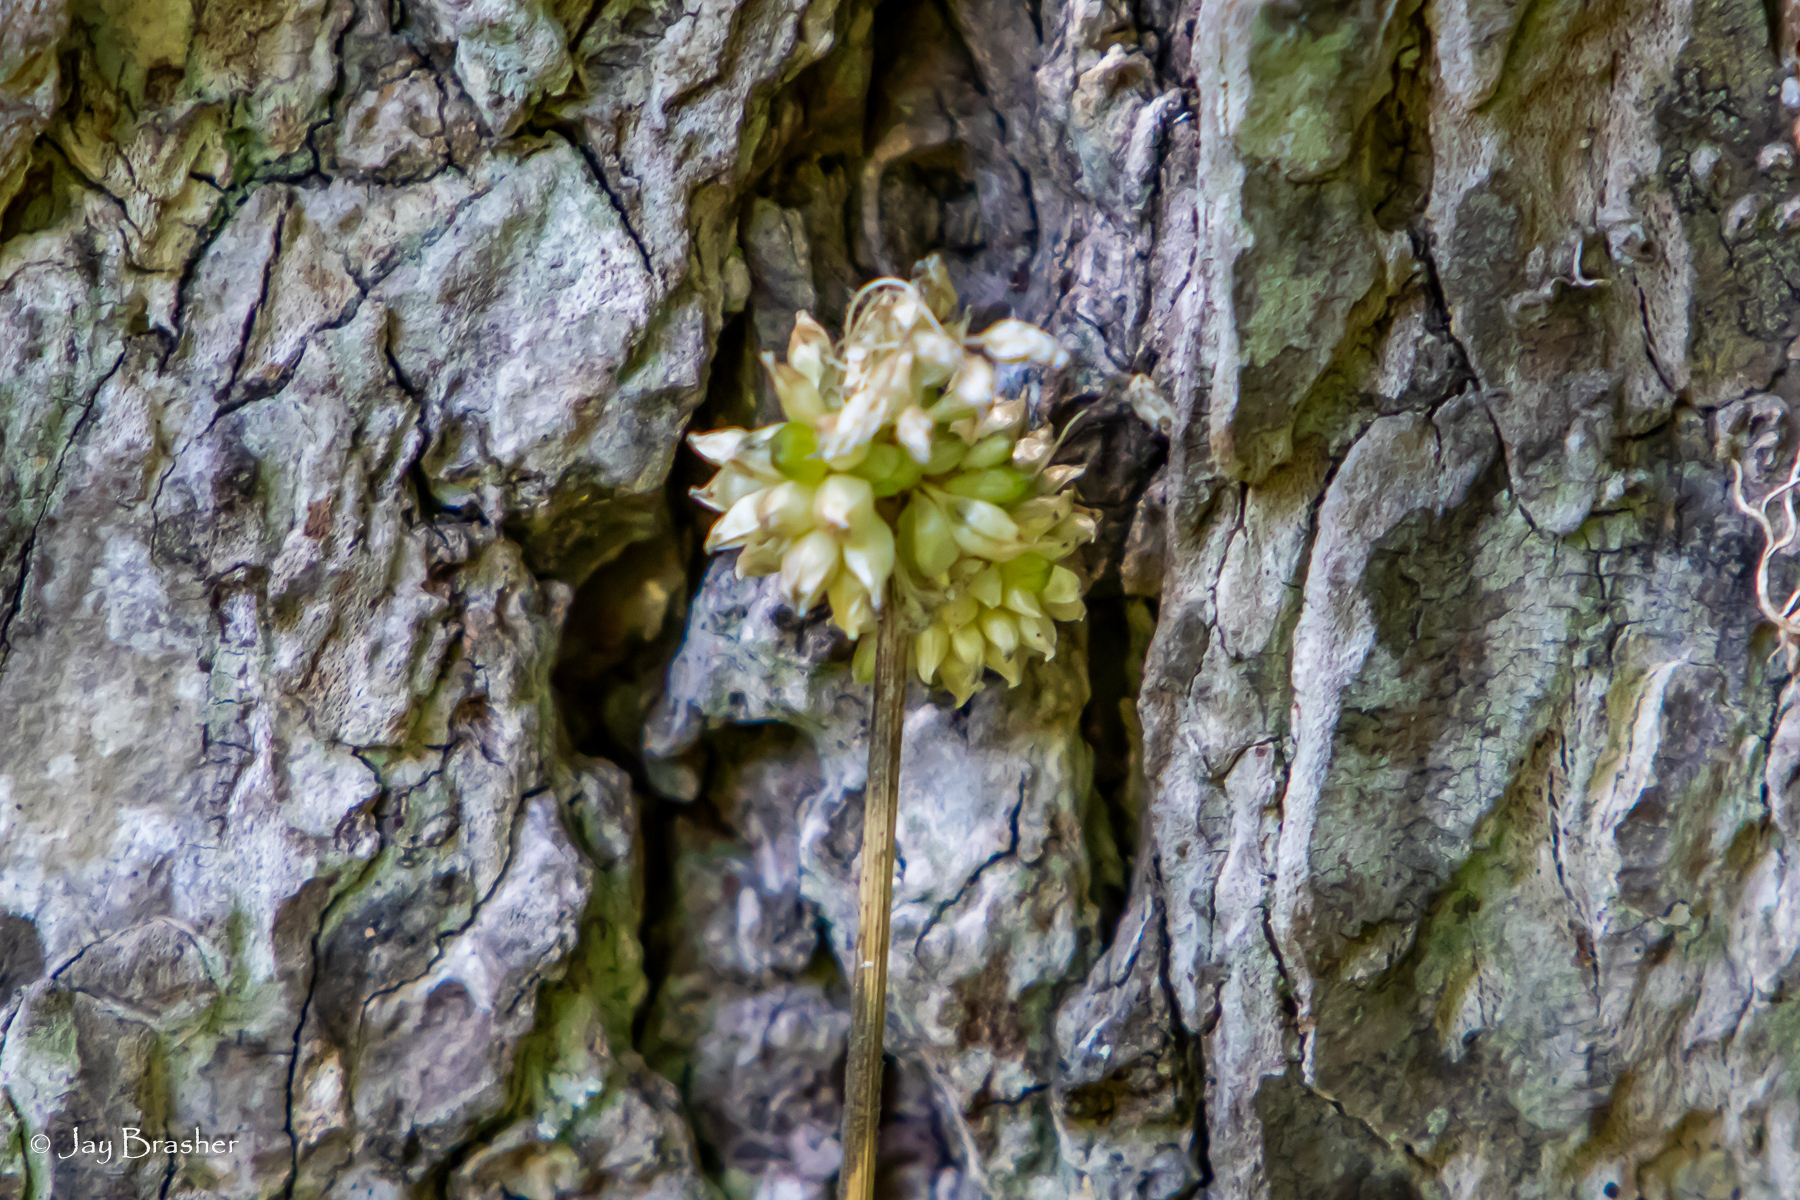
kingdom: Plantae
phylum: Tracheophyta
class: Liliopsida
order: Asparagales
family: Amaryllidaceae
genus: Allium
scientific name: Allium vineale
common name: Crow garlic
